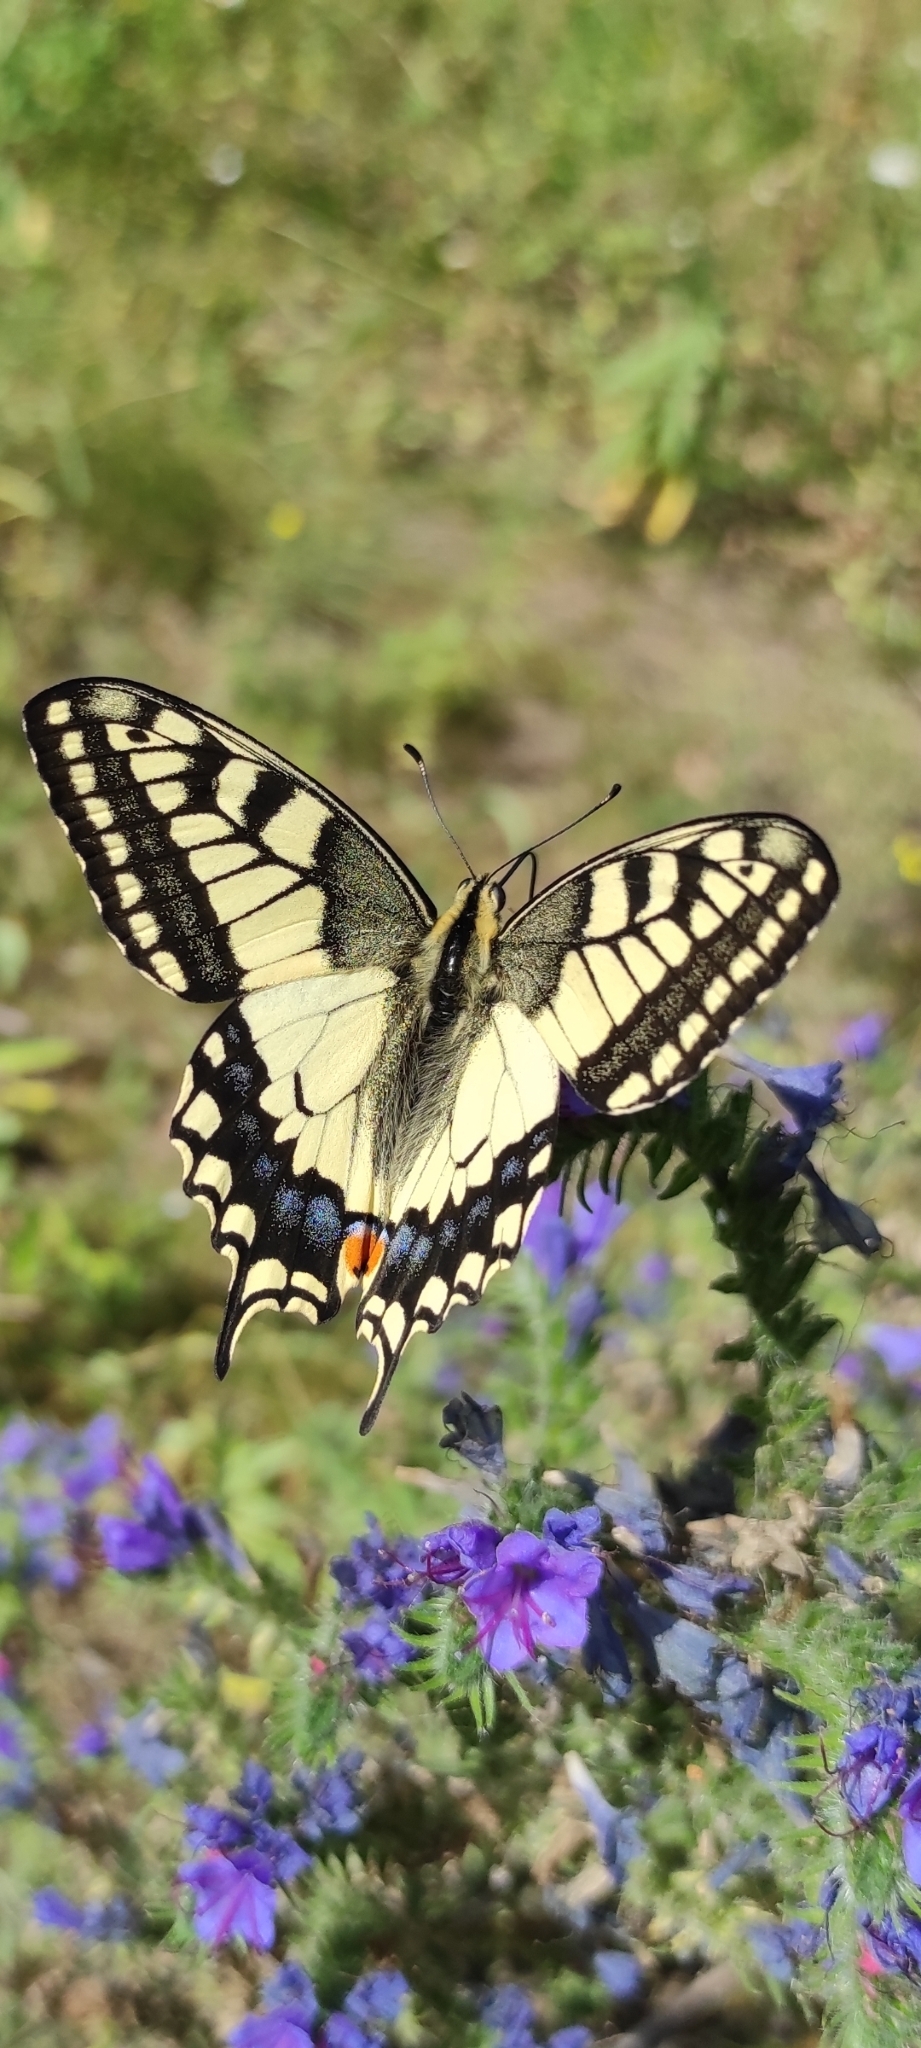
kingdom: Animalia
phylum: Arthropoda
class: Insecta
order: Lepidoptera
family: Papilionidae
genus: Papilio
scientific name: Papilio machaon
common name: Swallowtail
